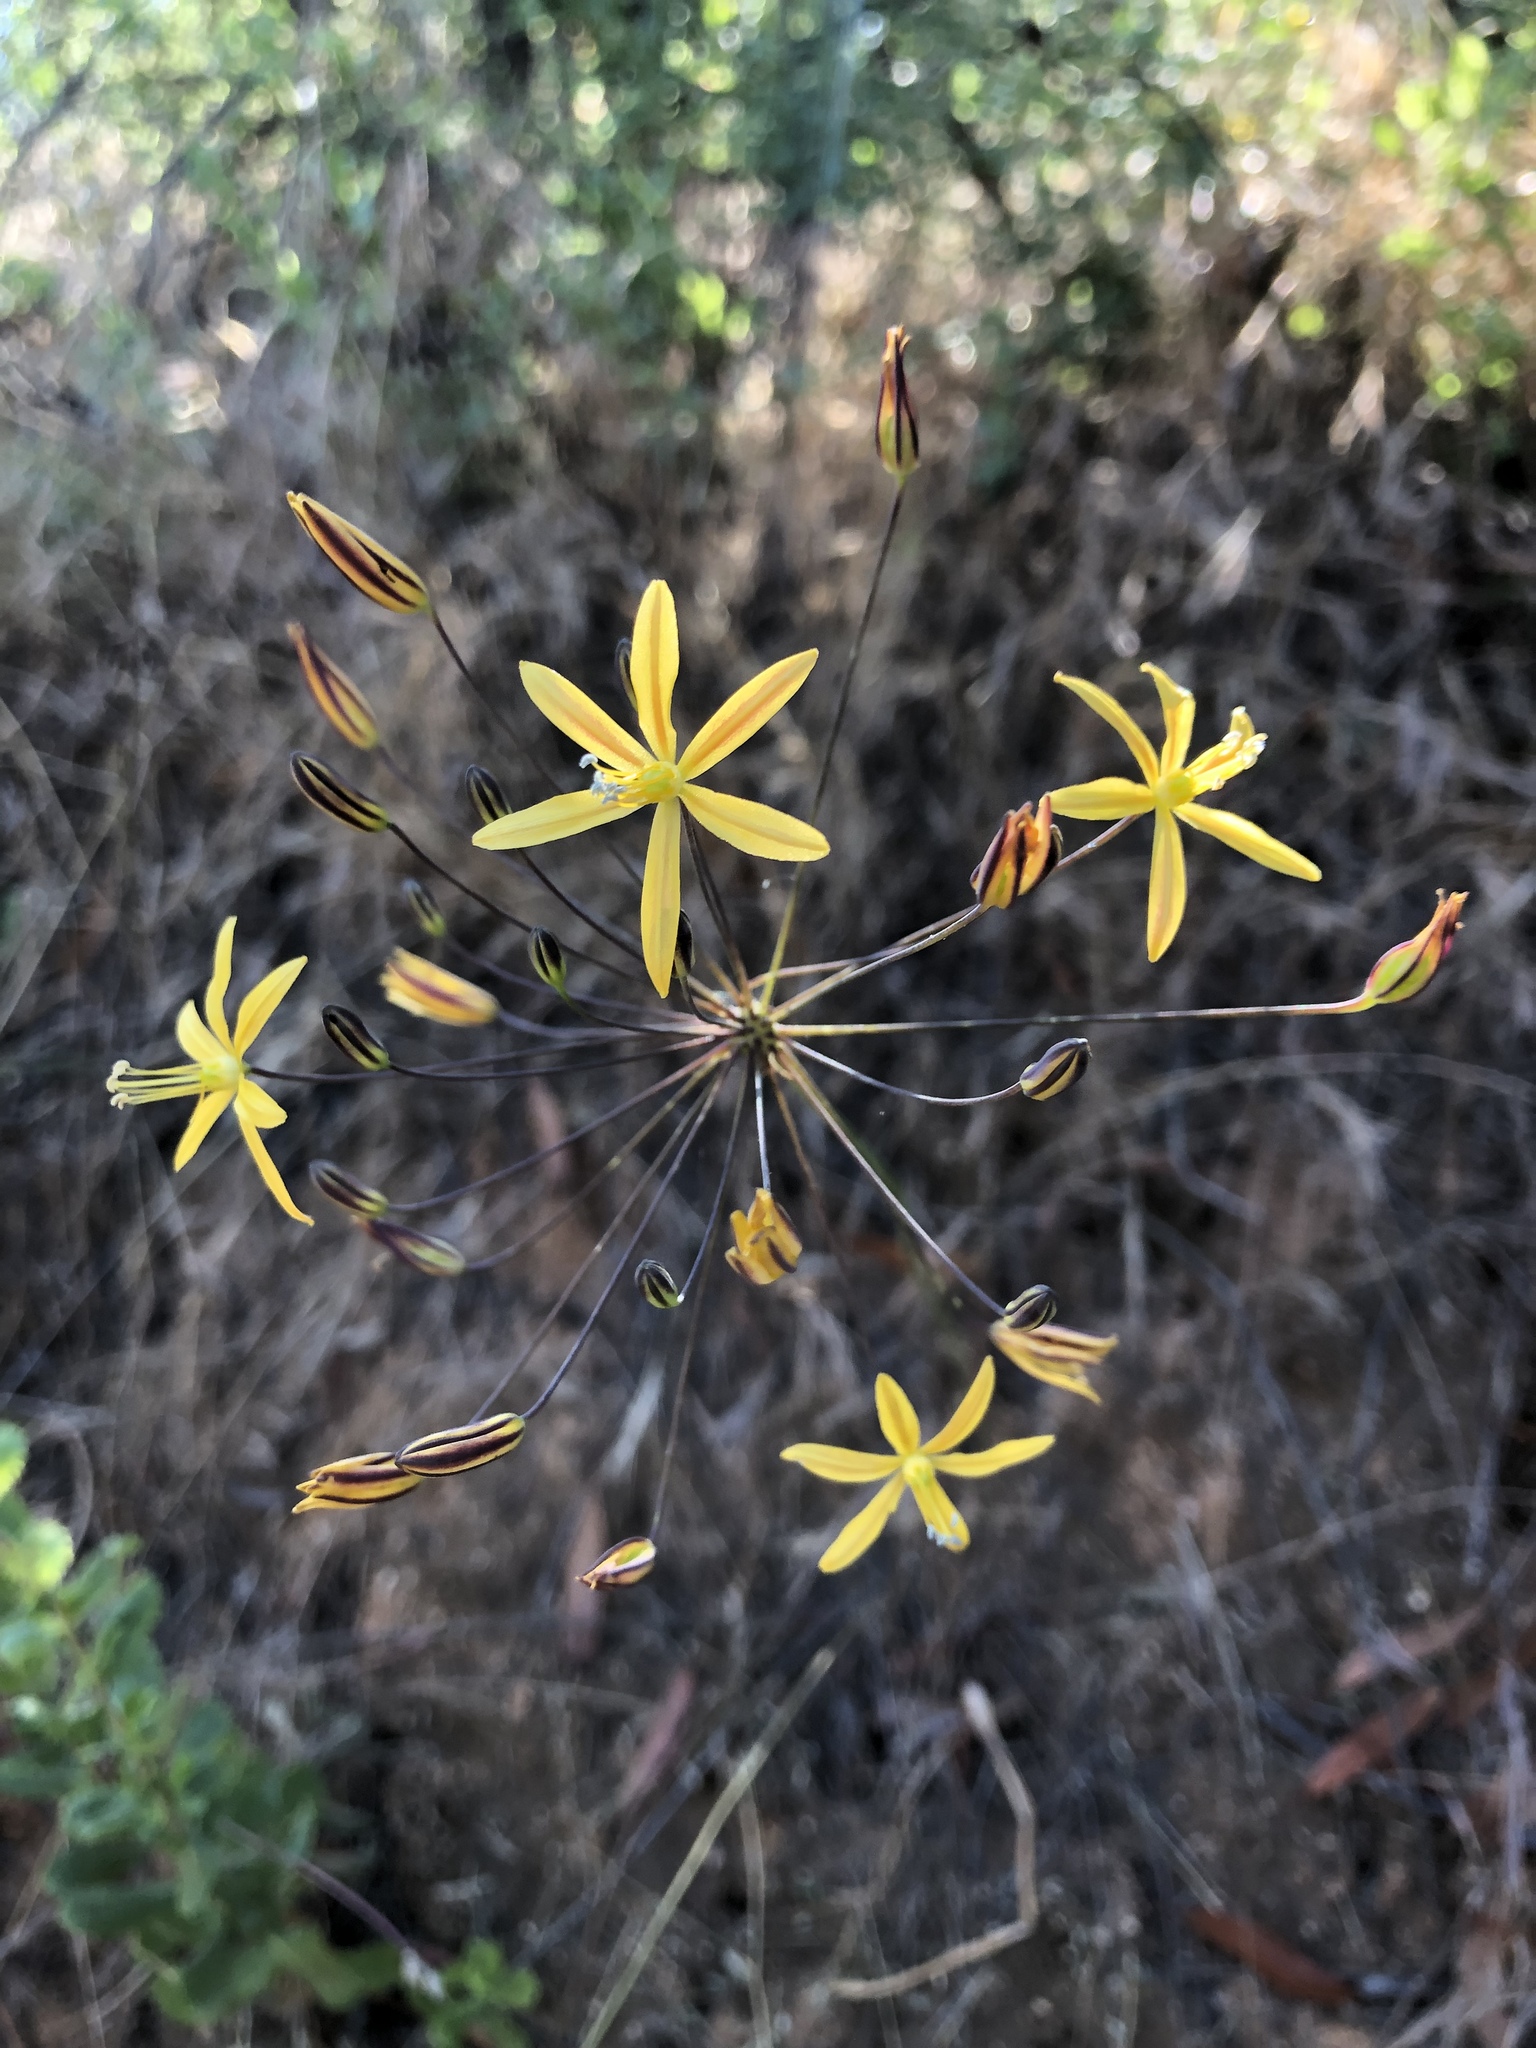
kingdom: Plantae
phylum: Tracheophyta
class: Liliopsida
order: Asparagales
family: Asparagaceae
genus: Bloomeria
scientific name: Bloomeria crocea
